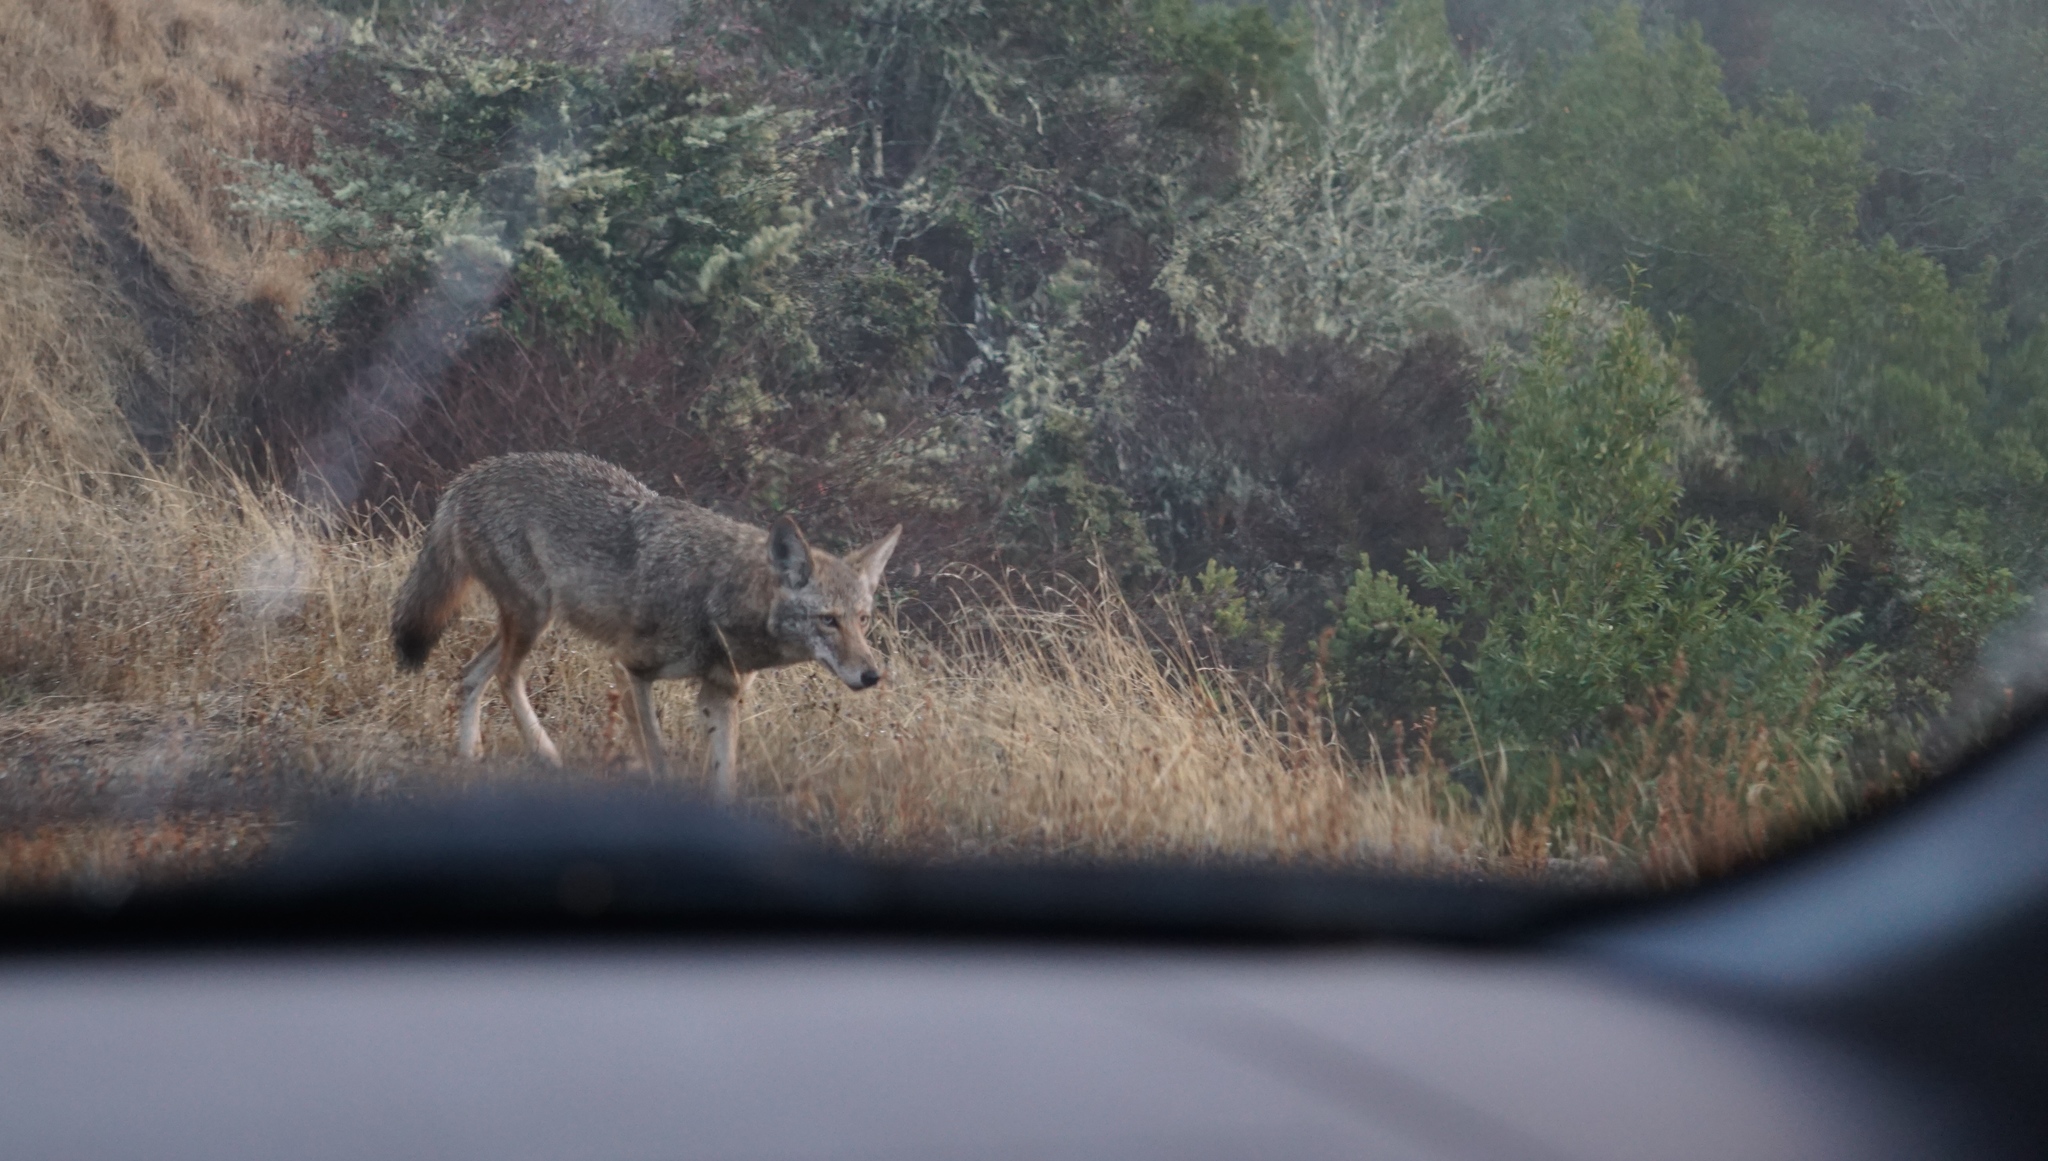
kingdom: Animalia
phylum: Chordata
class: Mammalia
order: Carnivora
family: Canidae
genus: Canis
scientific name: Canis latrans
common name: Coyote
